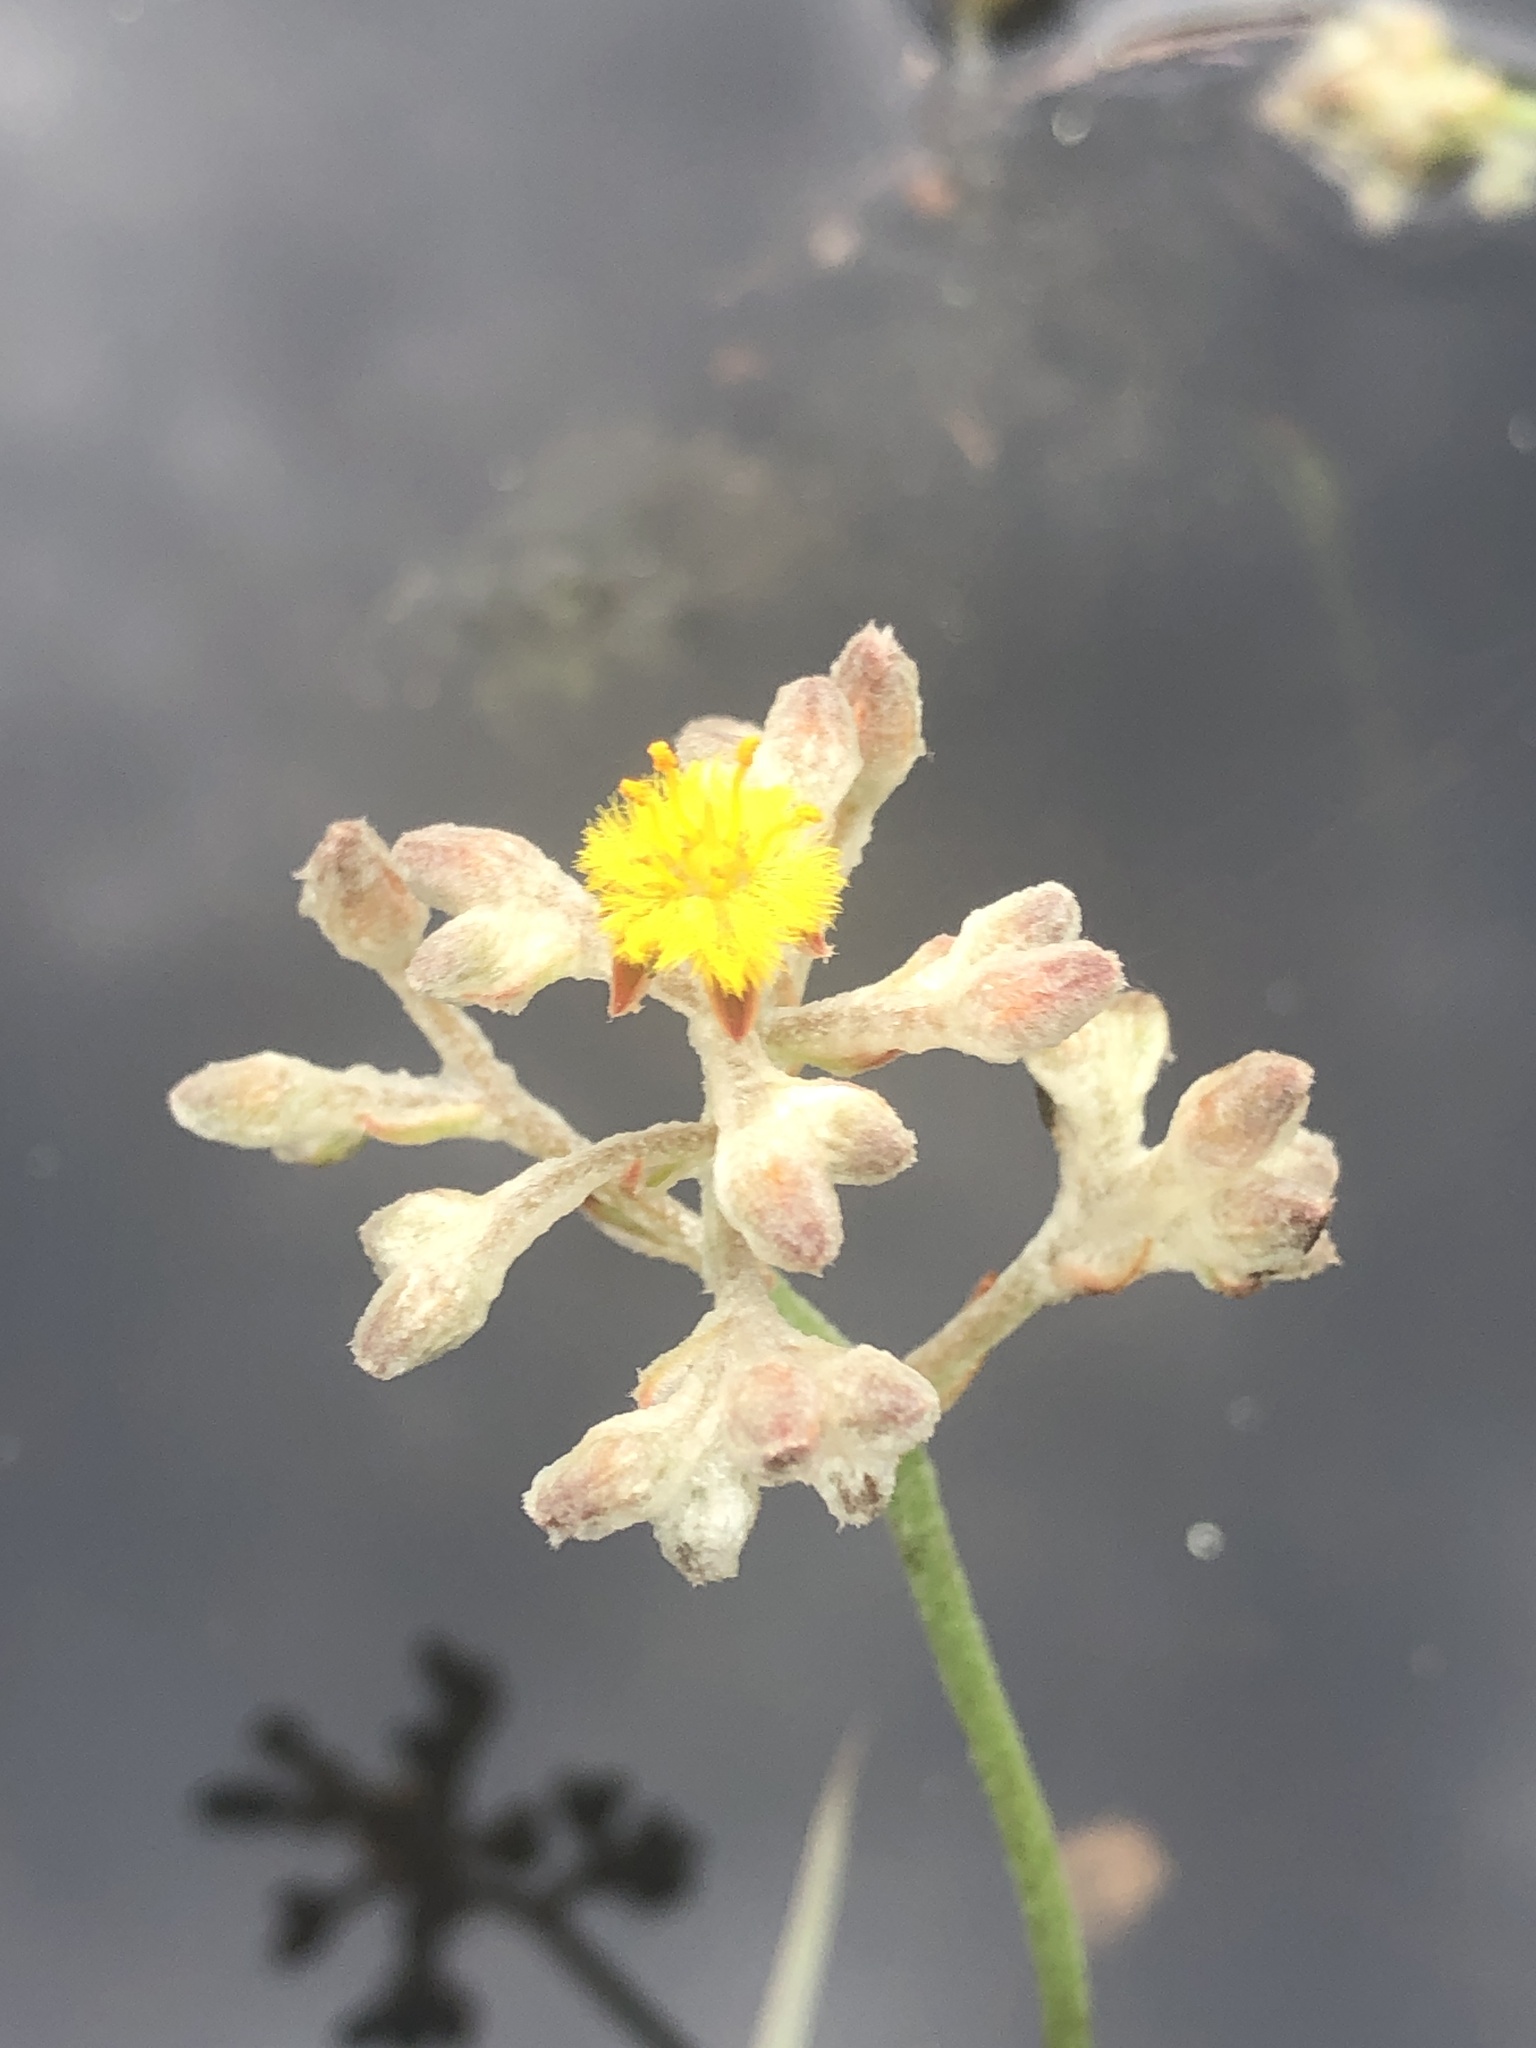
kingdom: Plantae
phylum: Tracheophyta
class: Liliopsida
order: Dioscoreales
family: Nartheciaceae
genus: Lophiola
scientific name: Lophiola aurea
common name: Golden-crest
